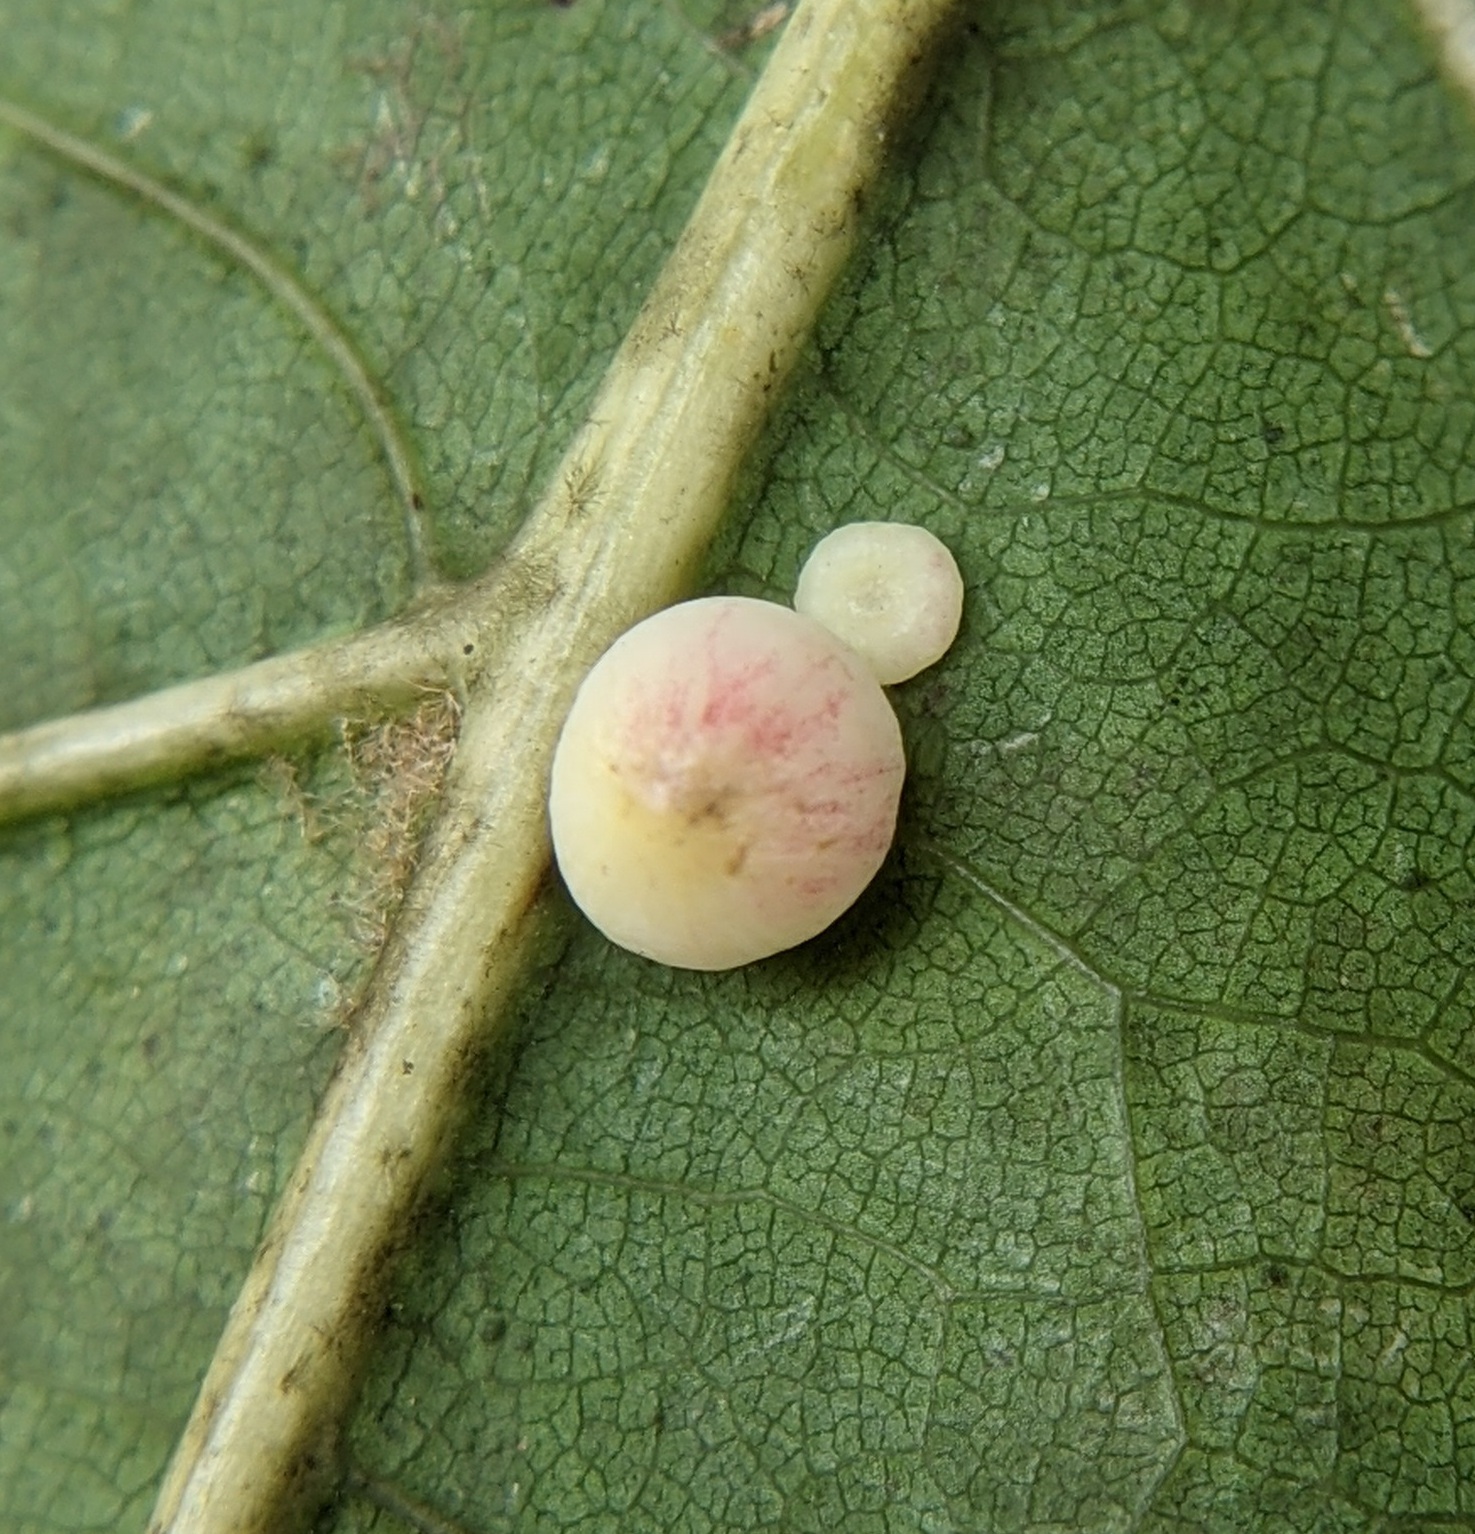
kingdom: Animalia
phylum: Arthropoda
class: Insecta
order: Hymenoptera
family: Cynipidae
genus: Zopheroteras
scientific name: Zopheroteras
